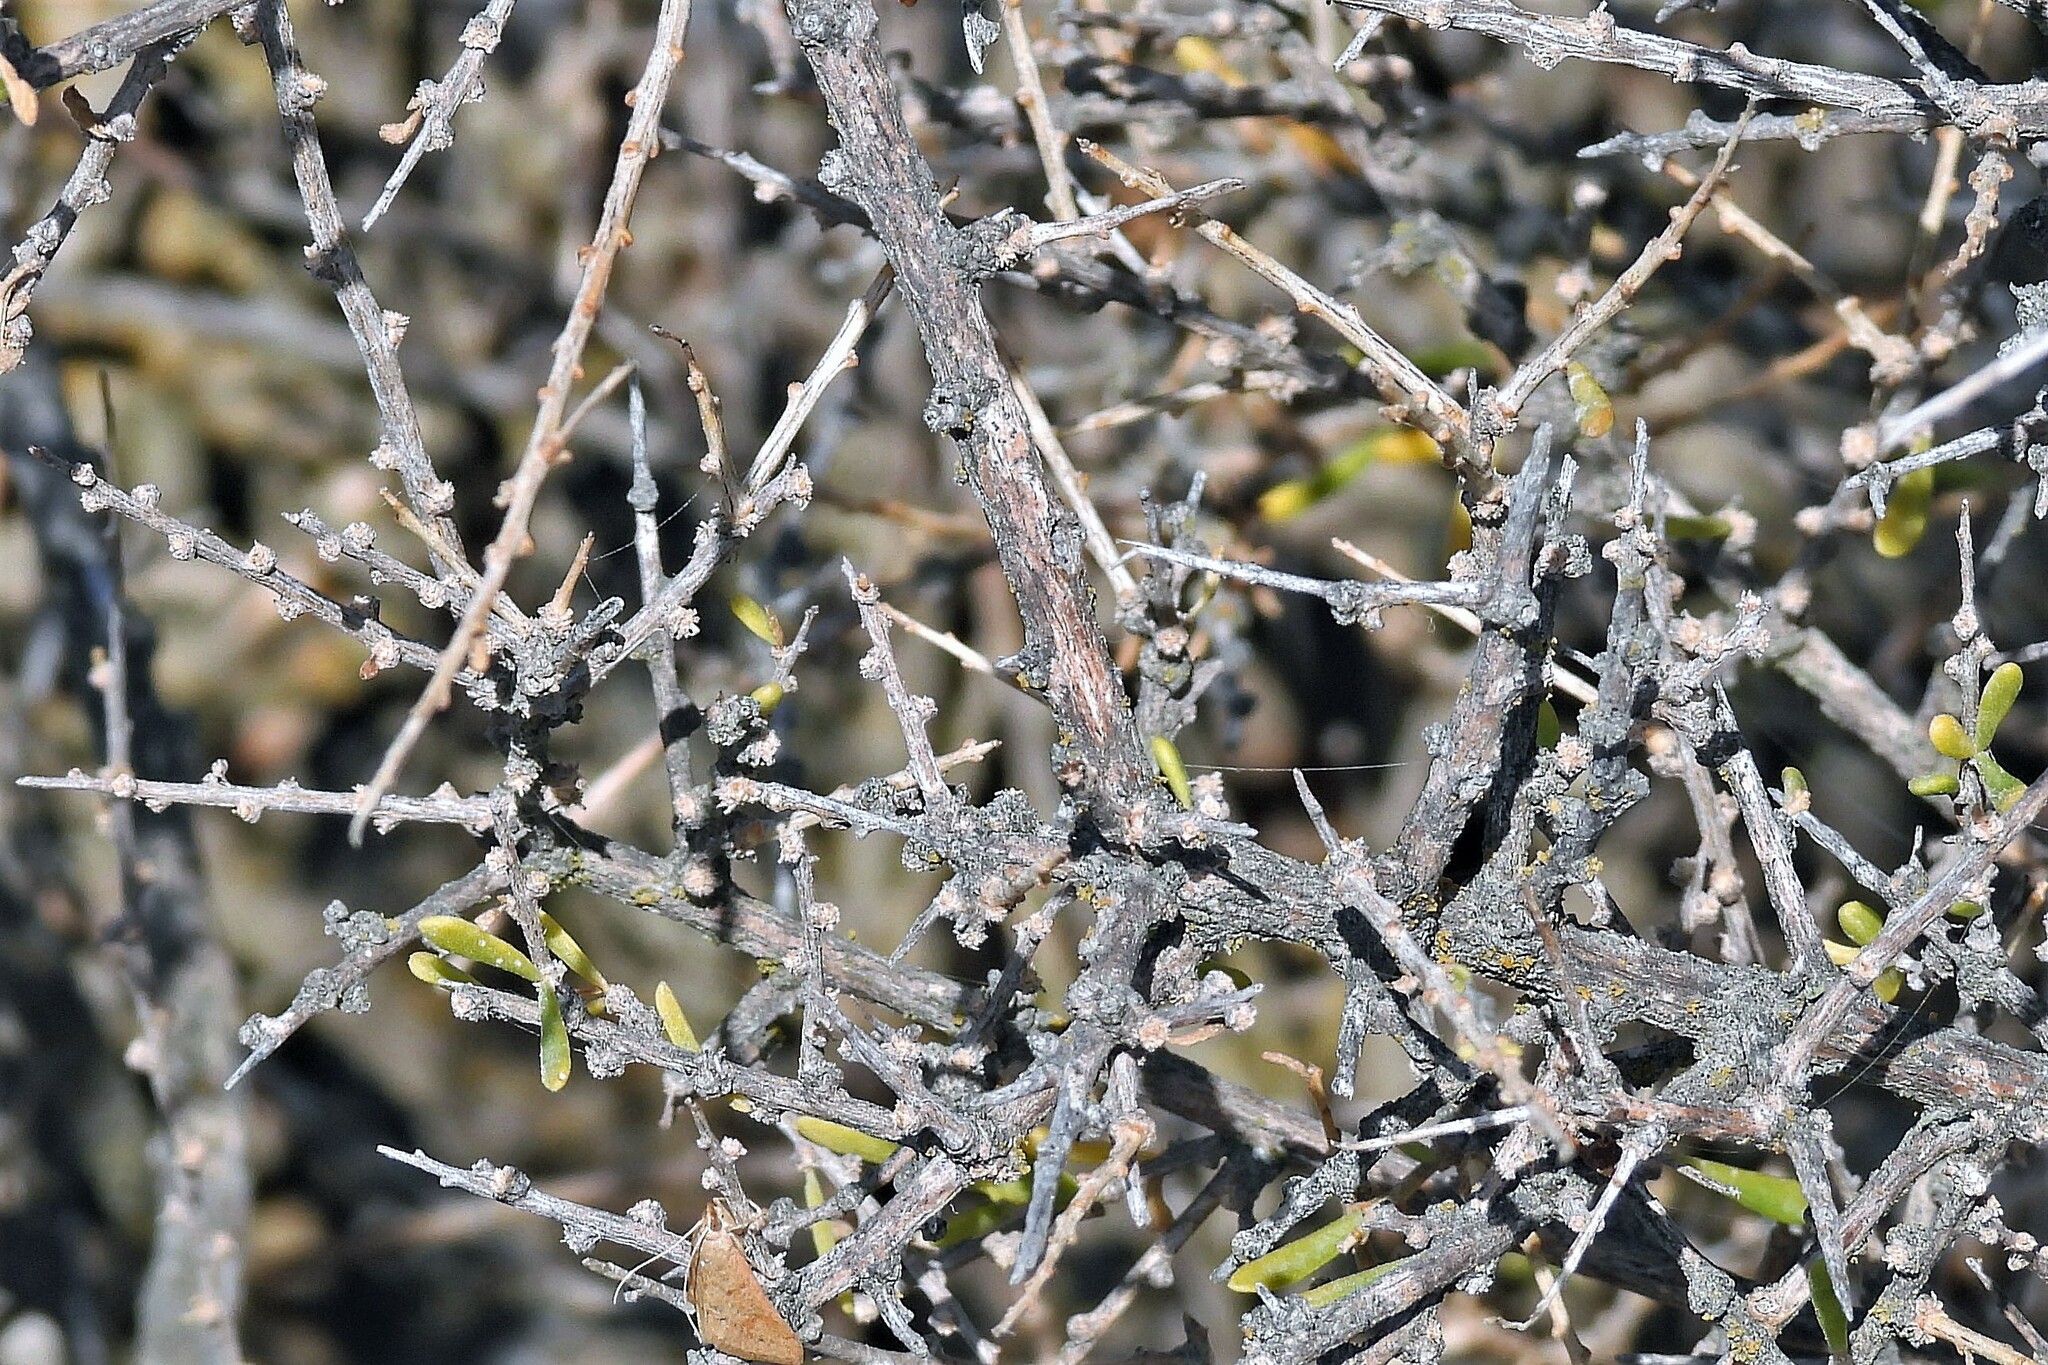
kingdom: Plantae
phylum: Tracheophyta
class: Magnoliopsida
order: Caryophyllales
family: Amaranthaceae
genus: Suaeda
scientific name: Suaeda divaricata
